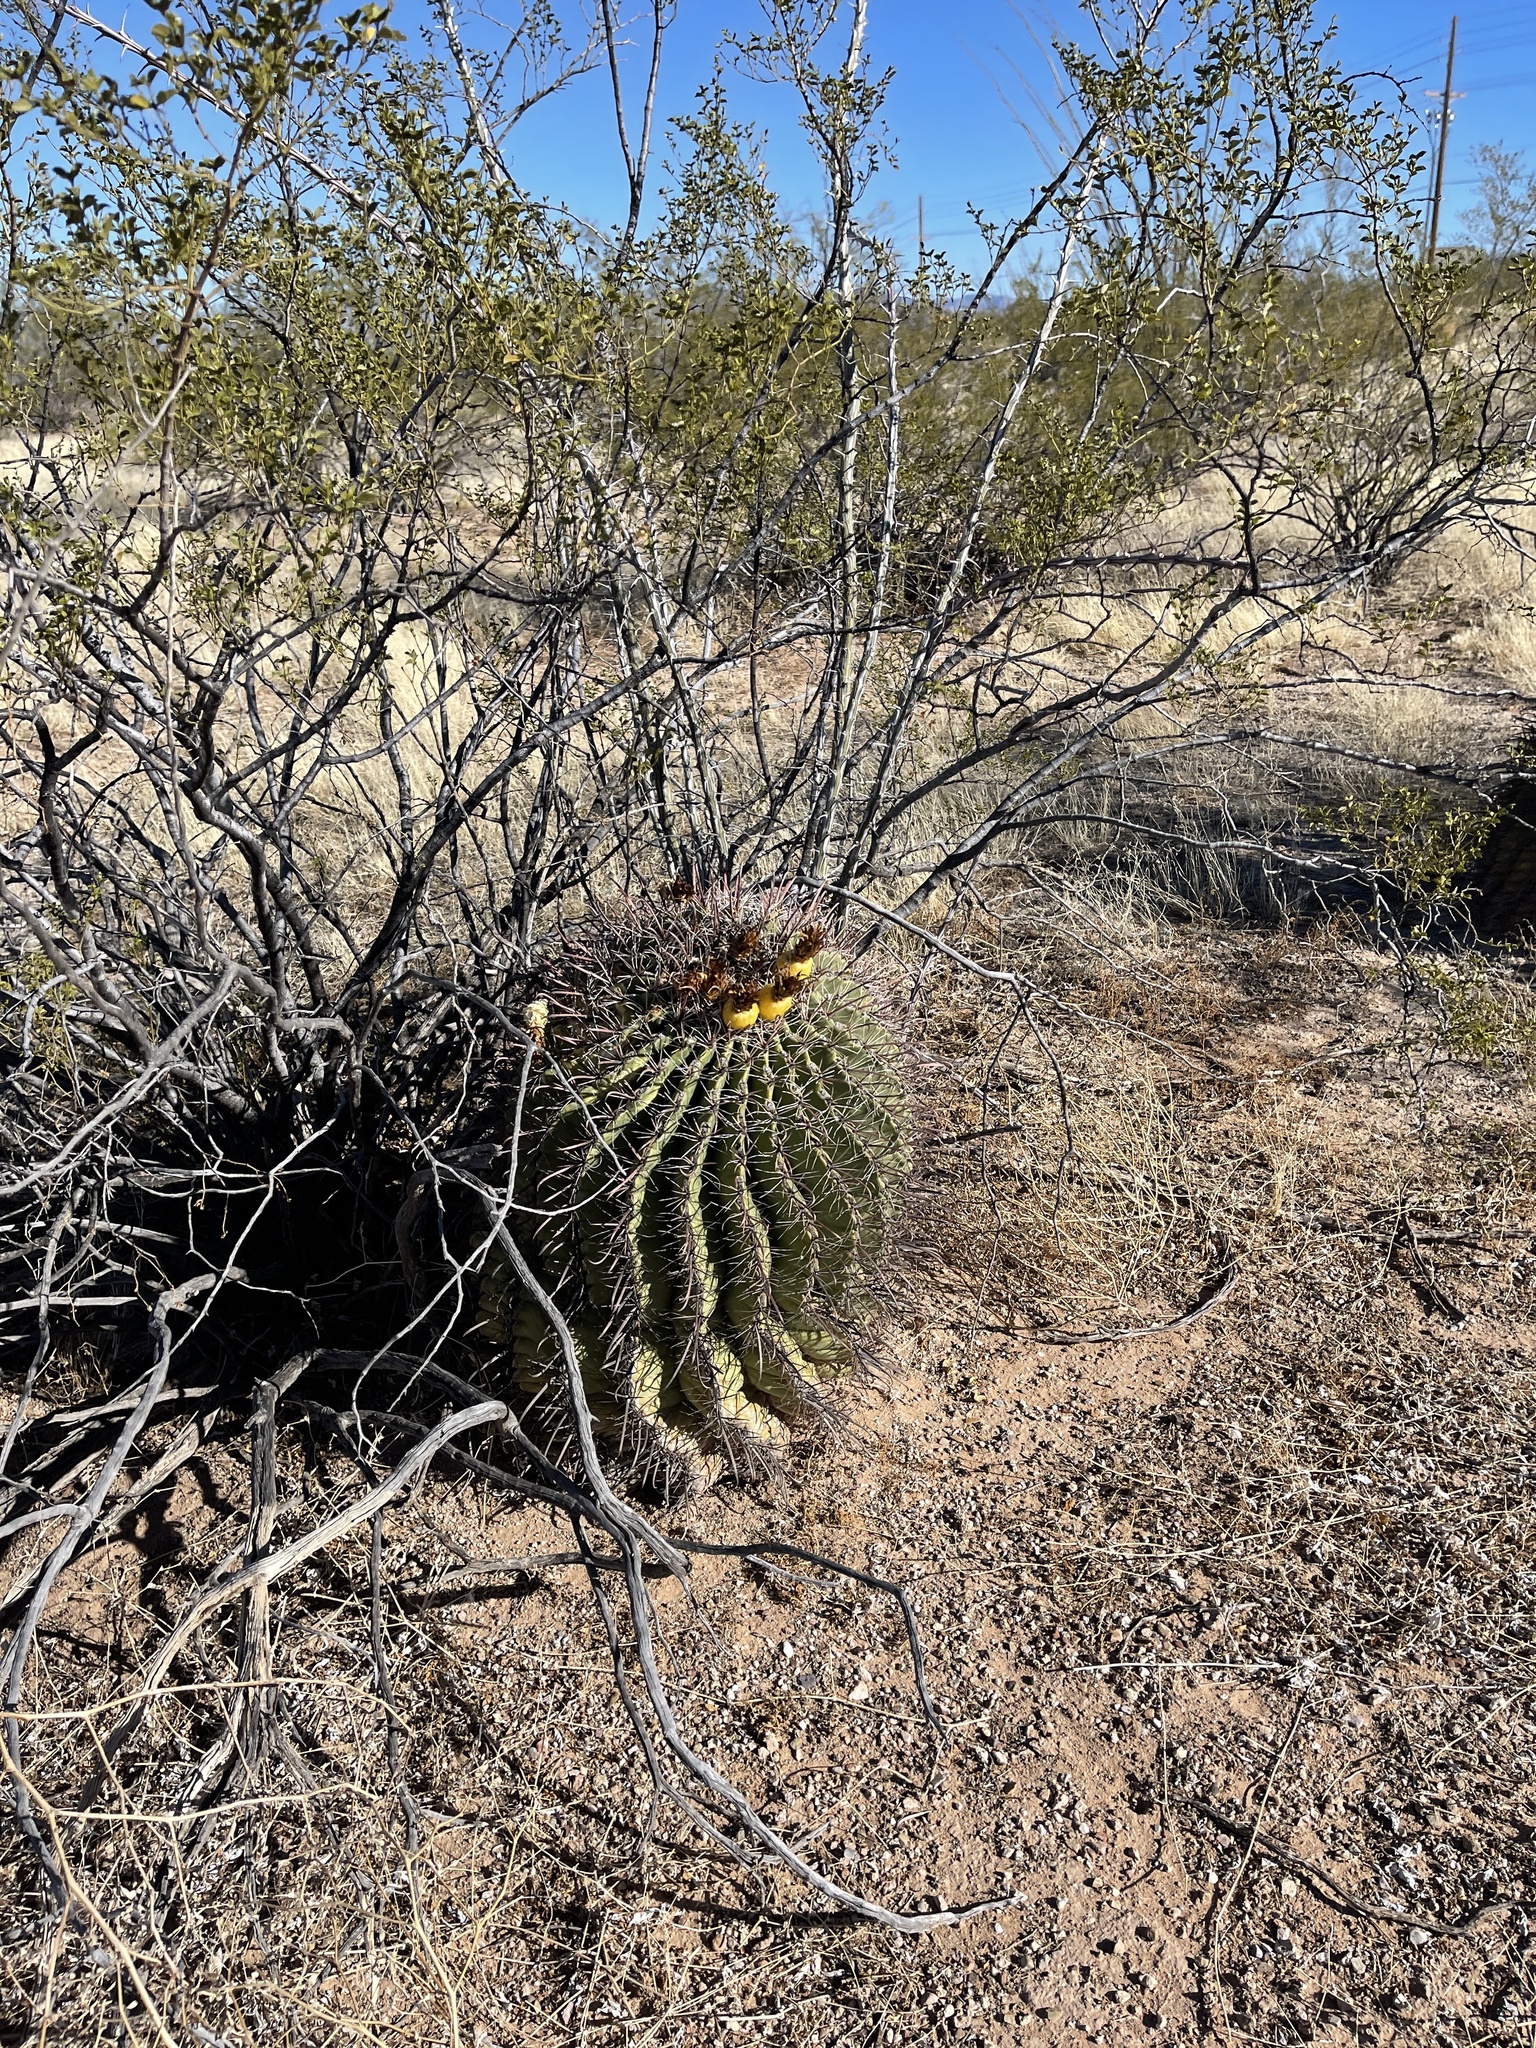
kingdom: Plantae
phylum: Tracheophyta
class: Magnoliopsida
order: Caryophyllales
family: Cactaceae
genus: Ferocactus
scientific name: Ferocactus wislizeni
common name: Candy barrel cactus
